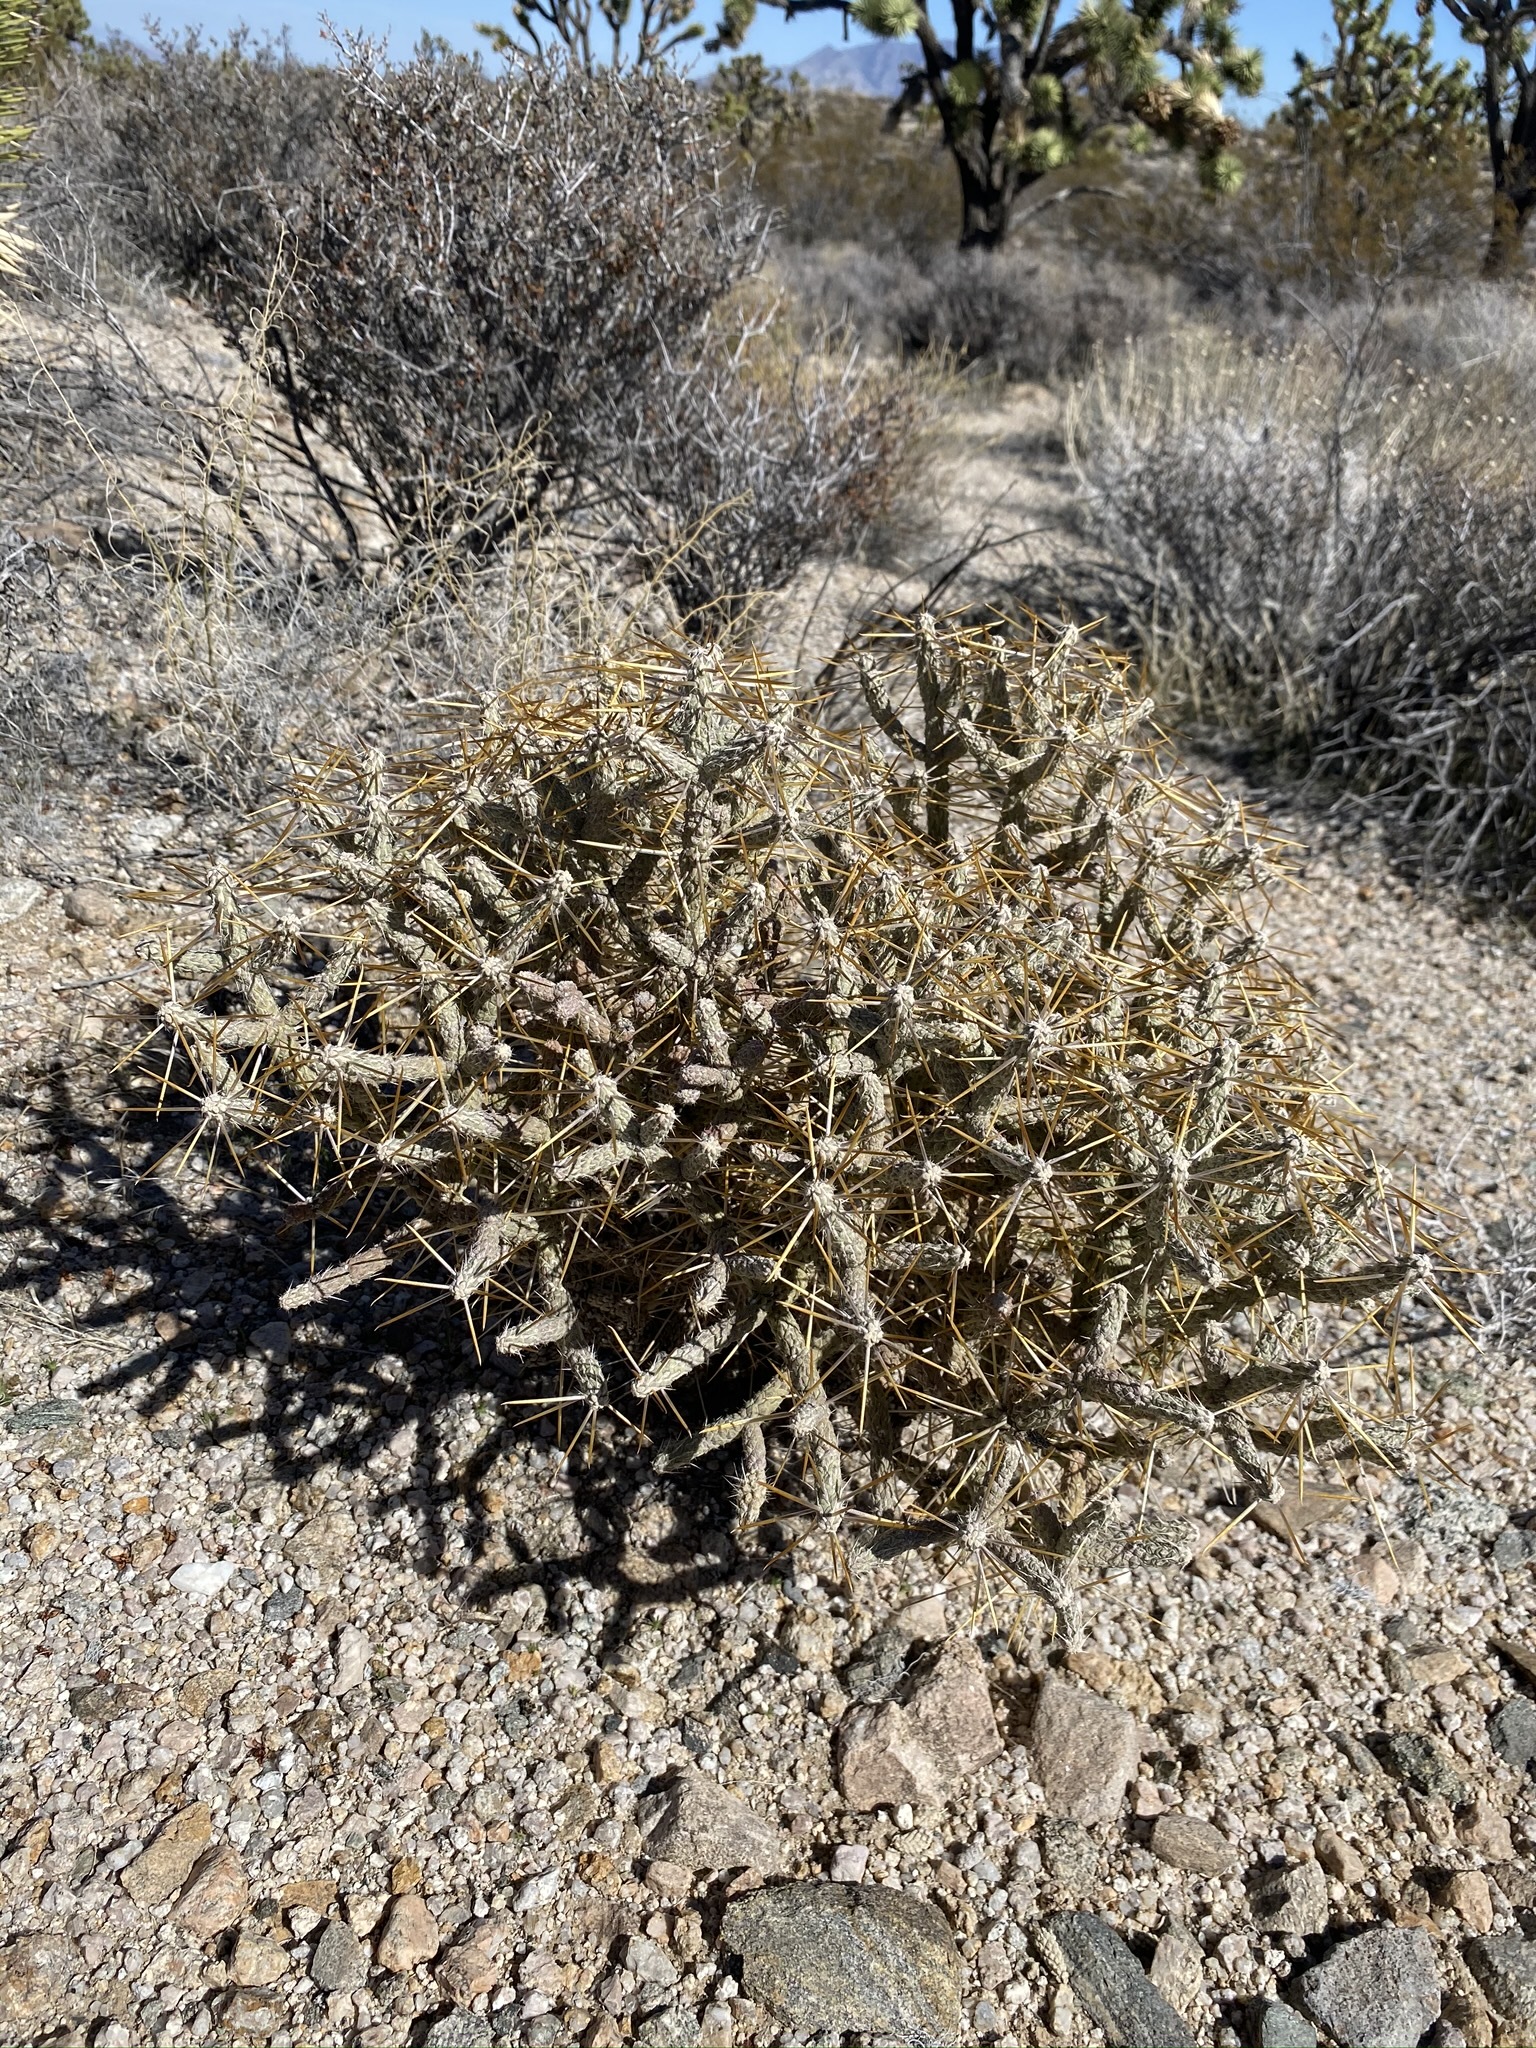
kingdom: Plantae
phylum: Tracheophyta
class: Magnoliopsida
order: Caryophyllales
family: Cactaceae
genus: Cylindropuntia
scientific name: Cylindropuntia ramosissima
